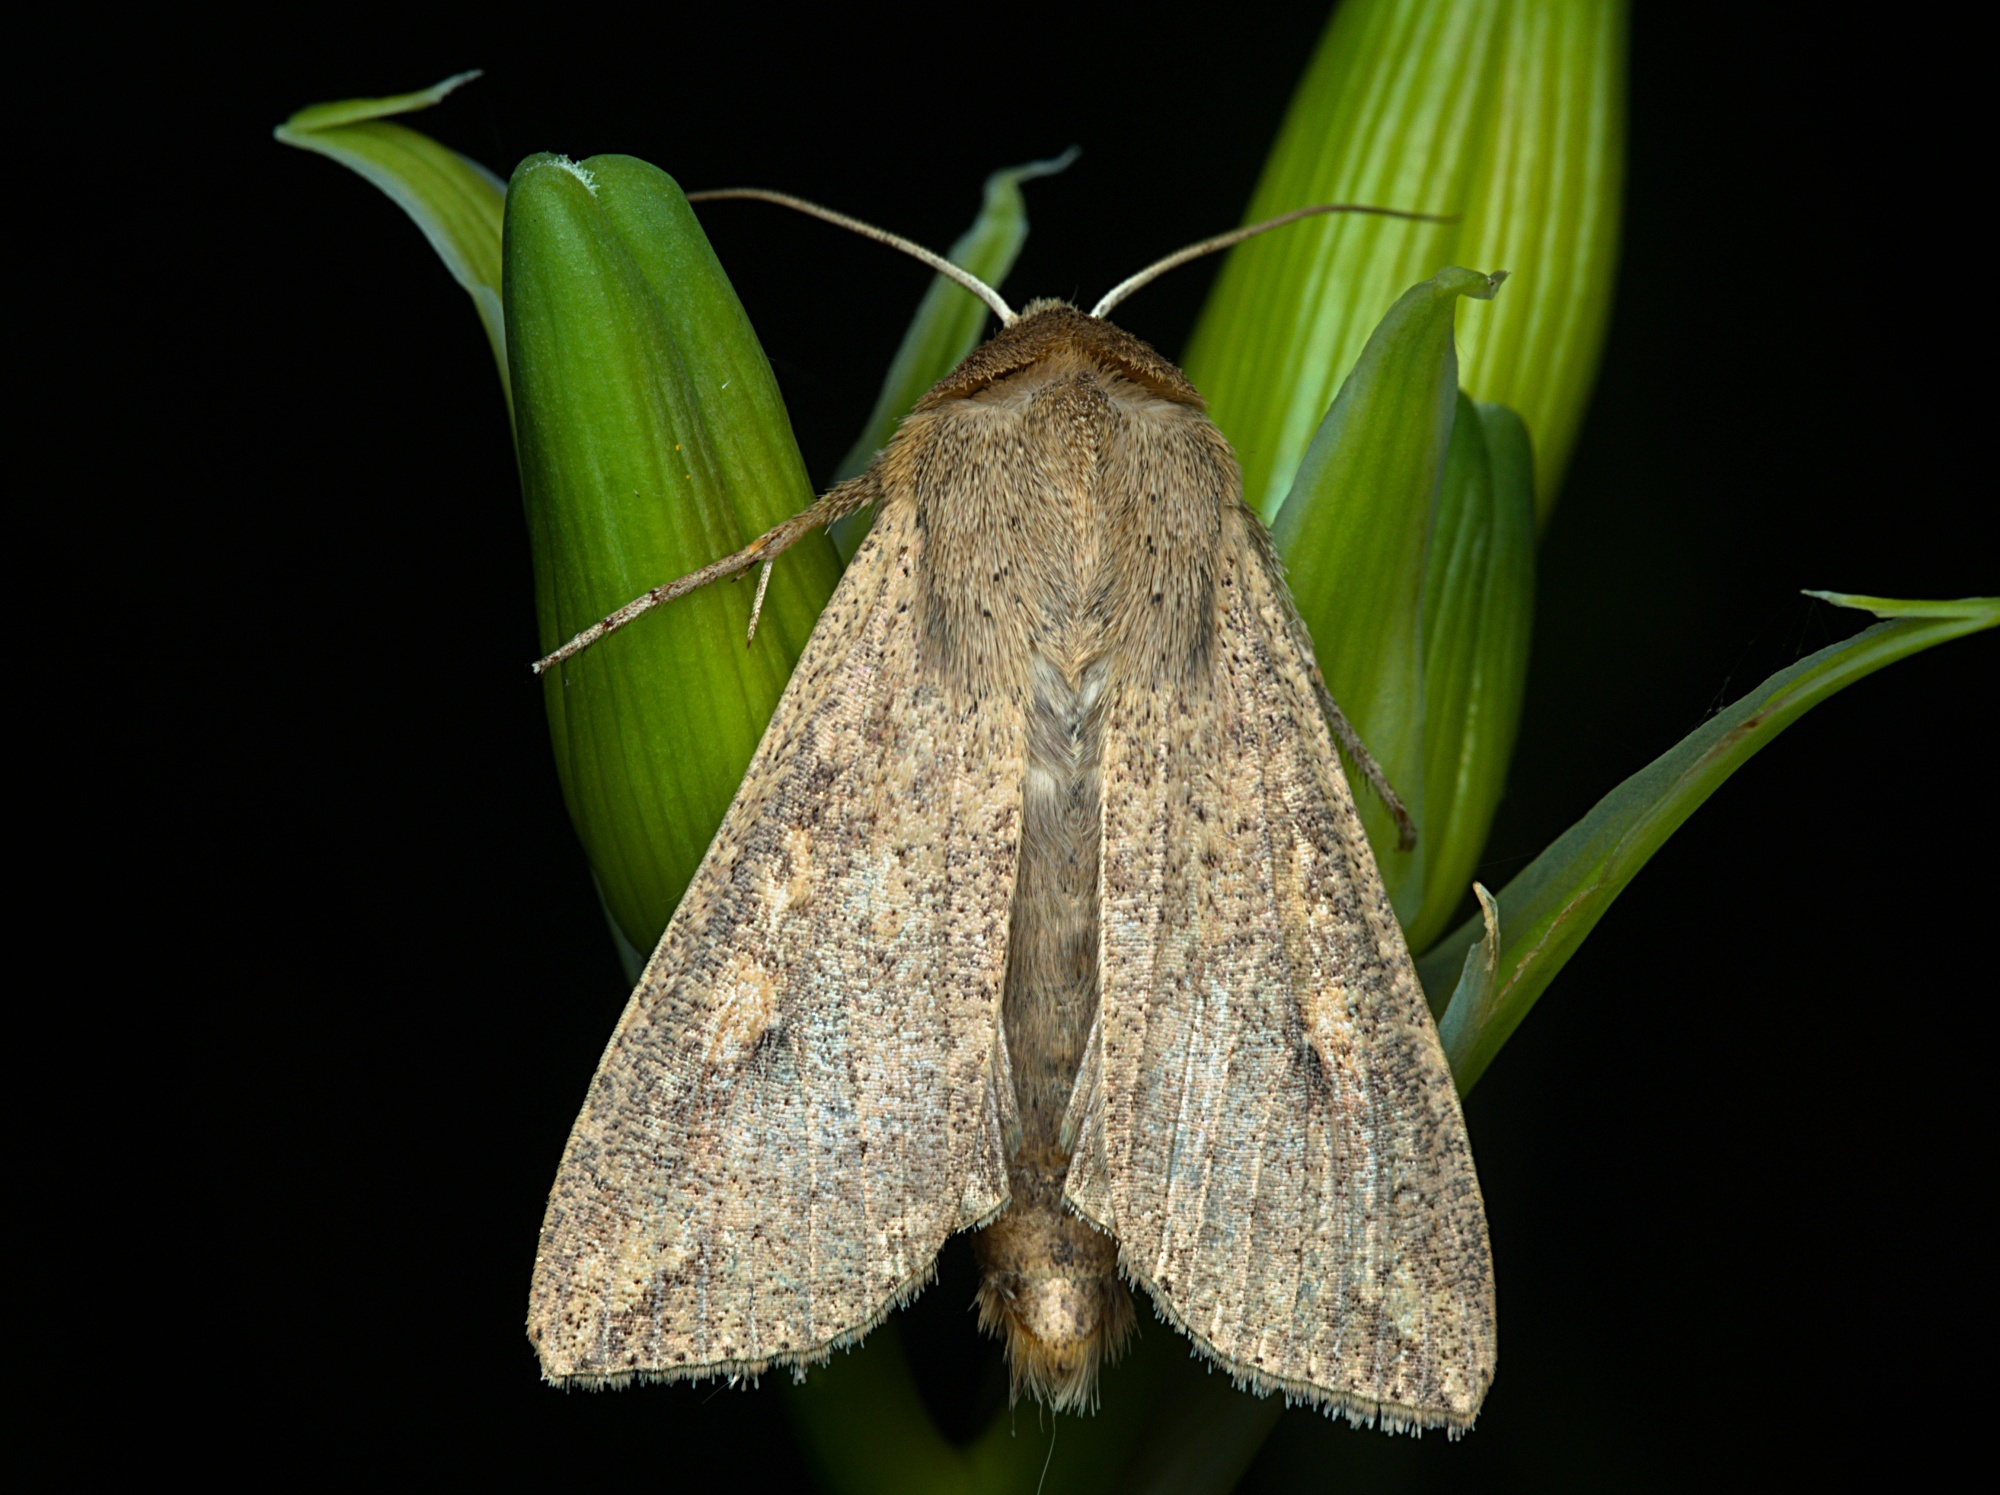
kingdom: Animalia
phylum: Arthropoda
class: Insecta
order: Lepidoptera
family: Noctuidae
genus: Mythimna
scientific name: Mythimna separata
